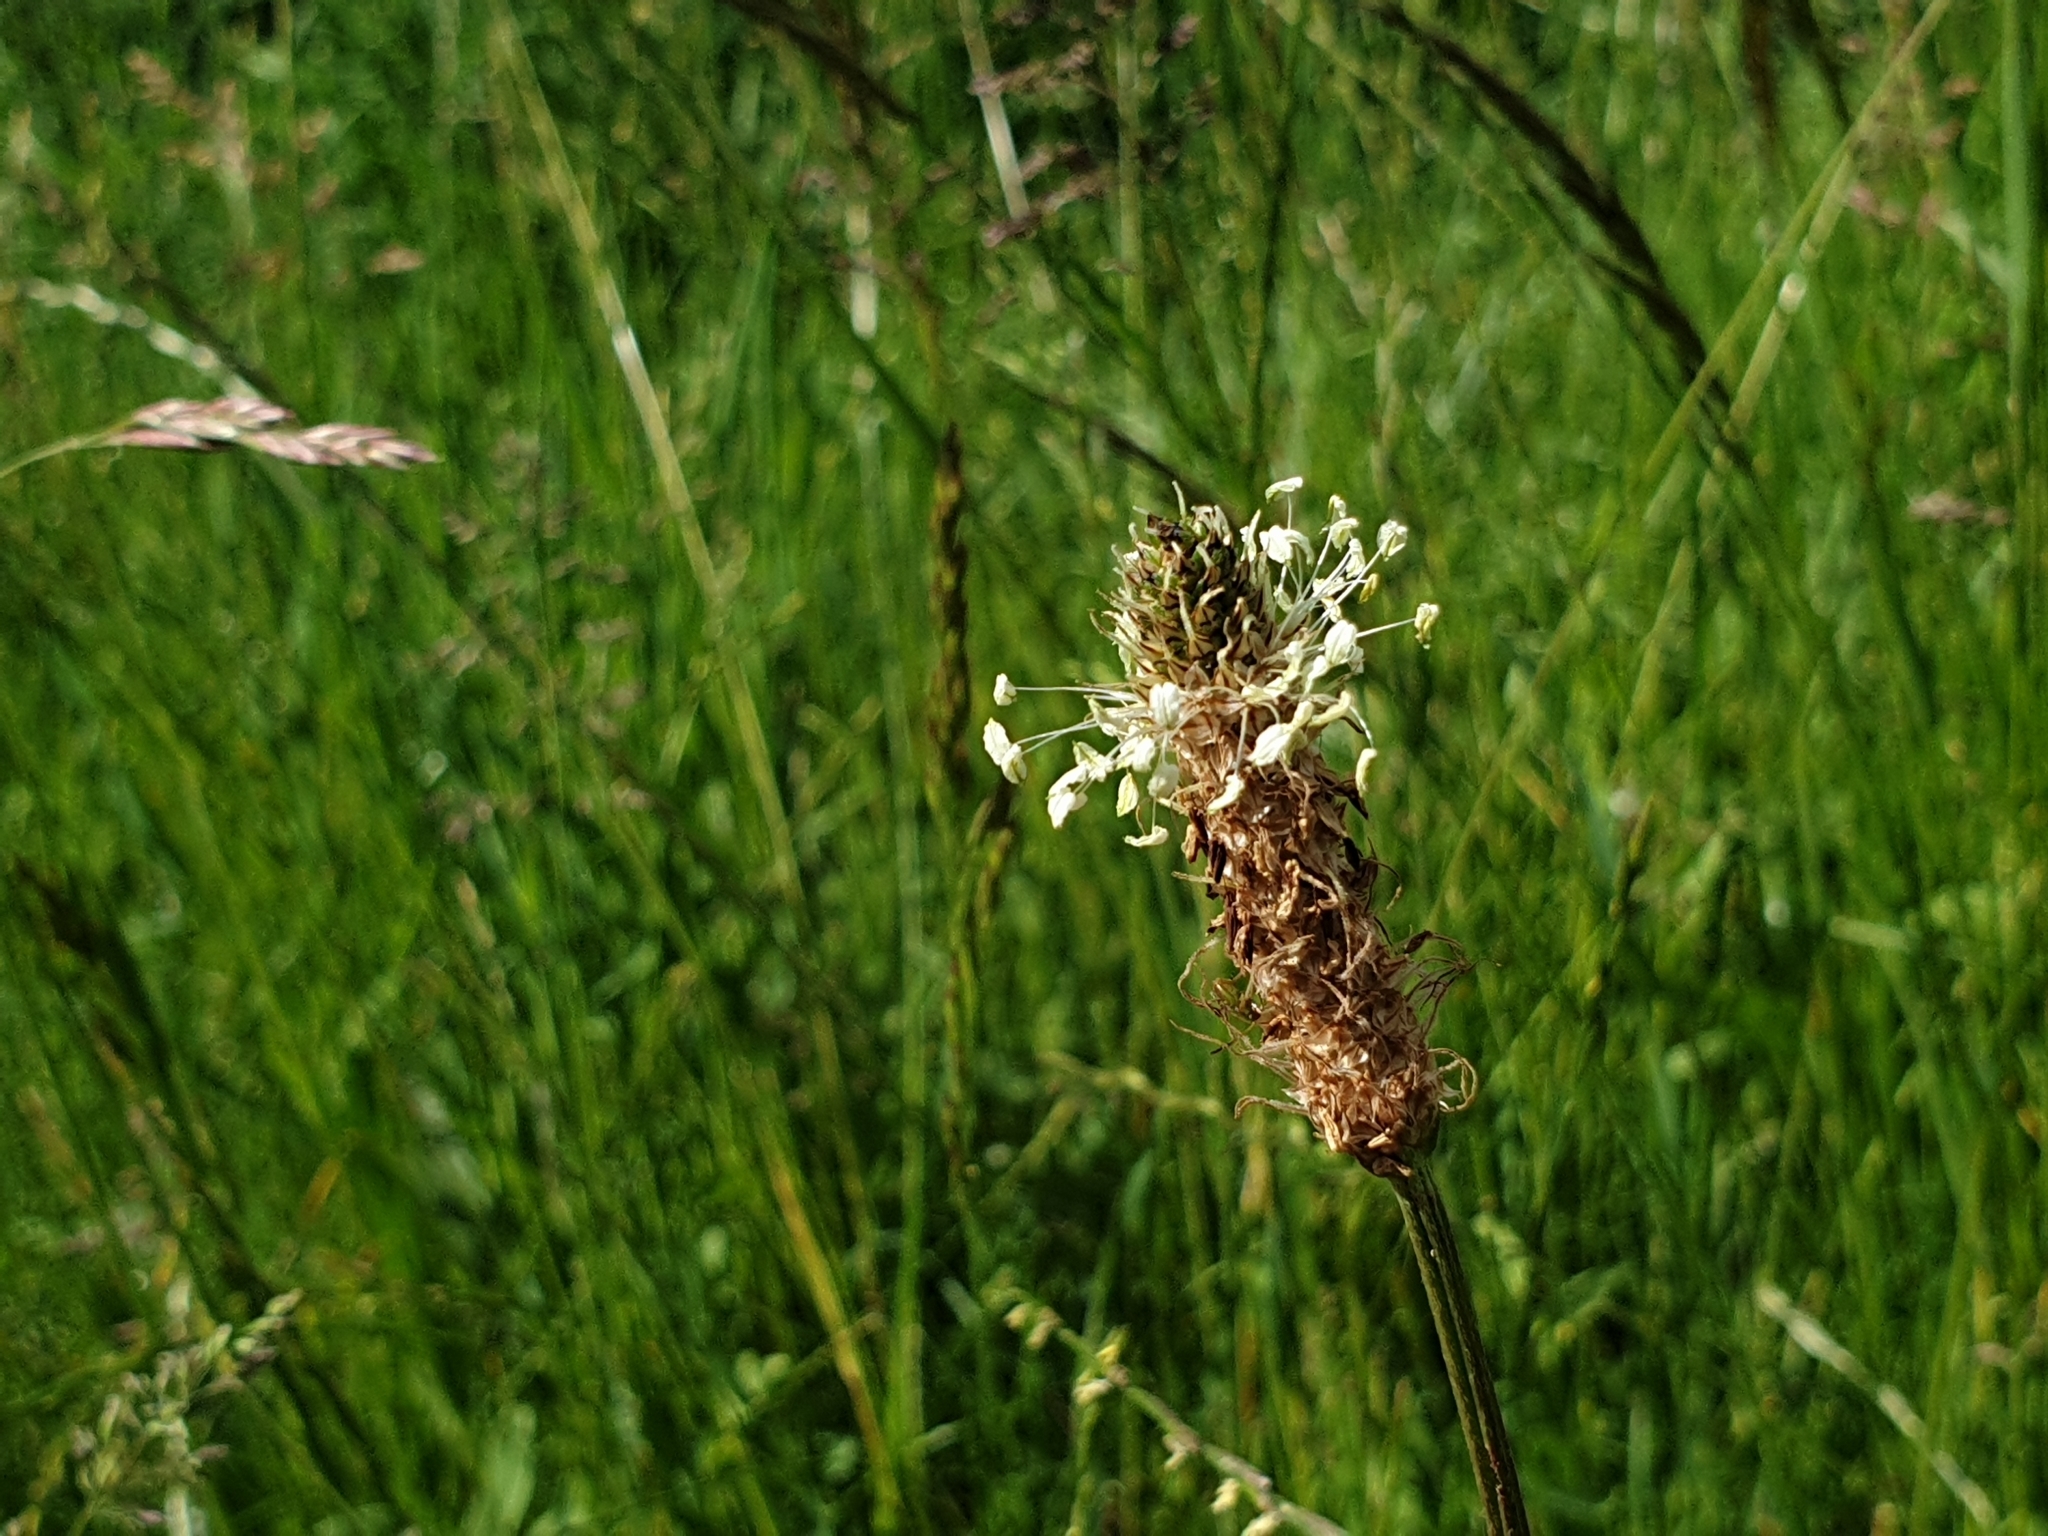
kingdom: Plantae
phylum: Tracheophyta
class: Magnoliopsida
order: Lamiales
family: Plantaginaceae
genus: Plantago
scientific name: Plantago lanceolata
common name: Ribwort plantain
